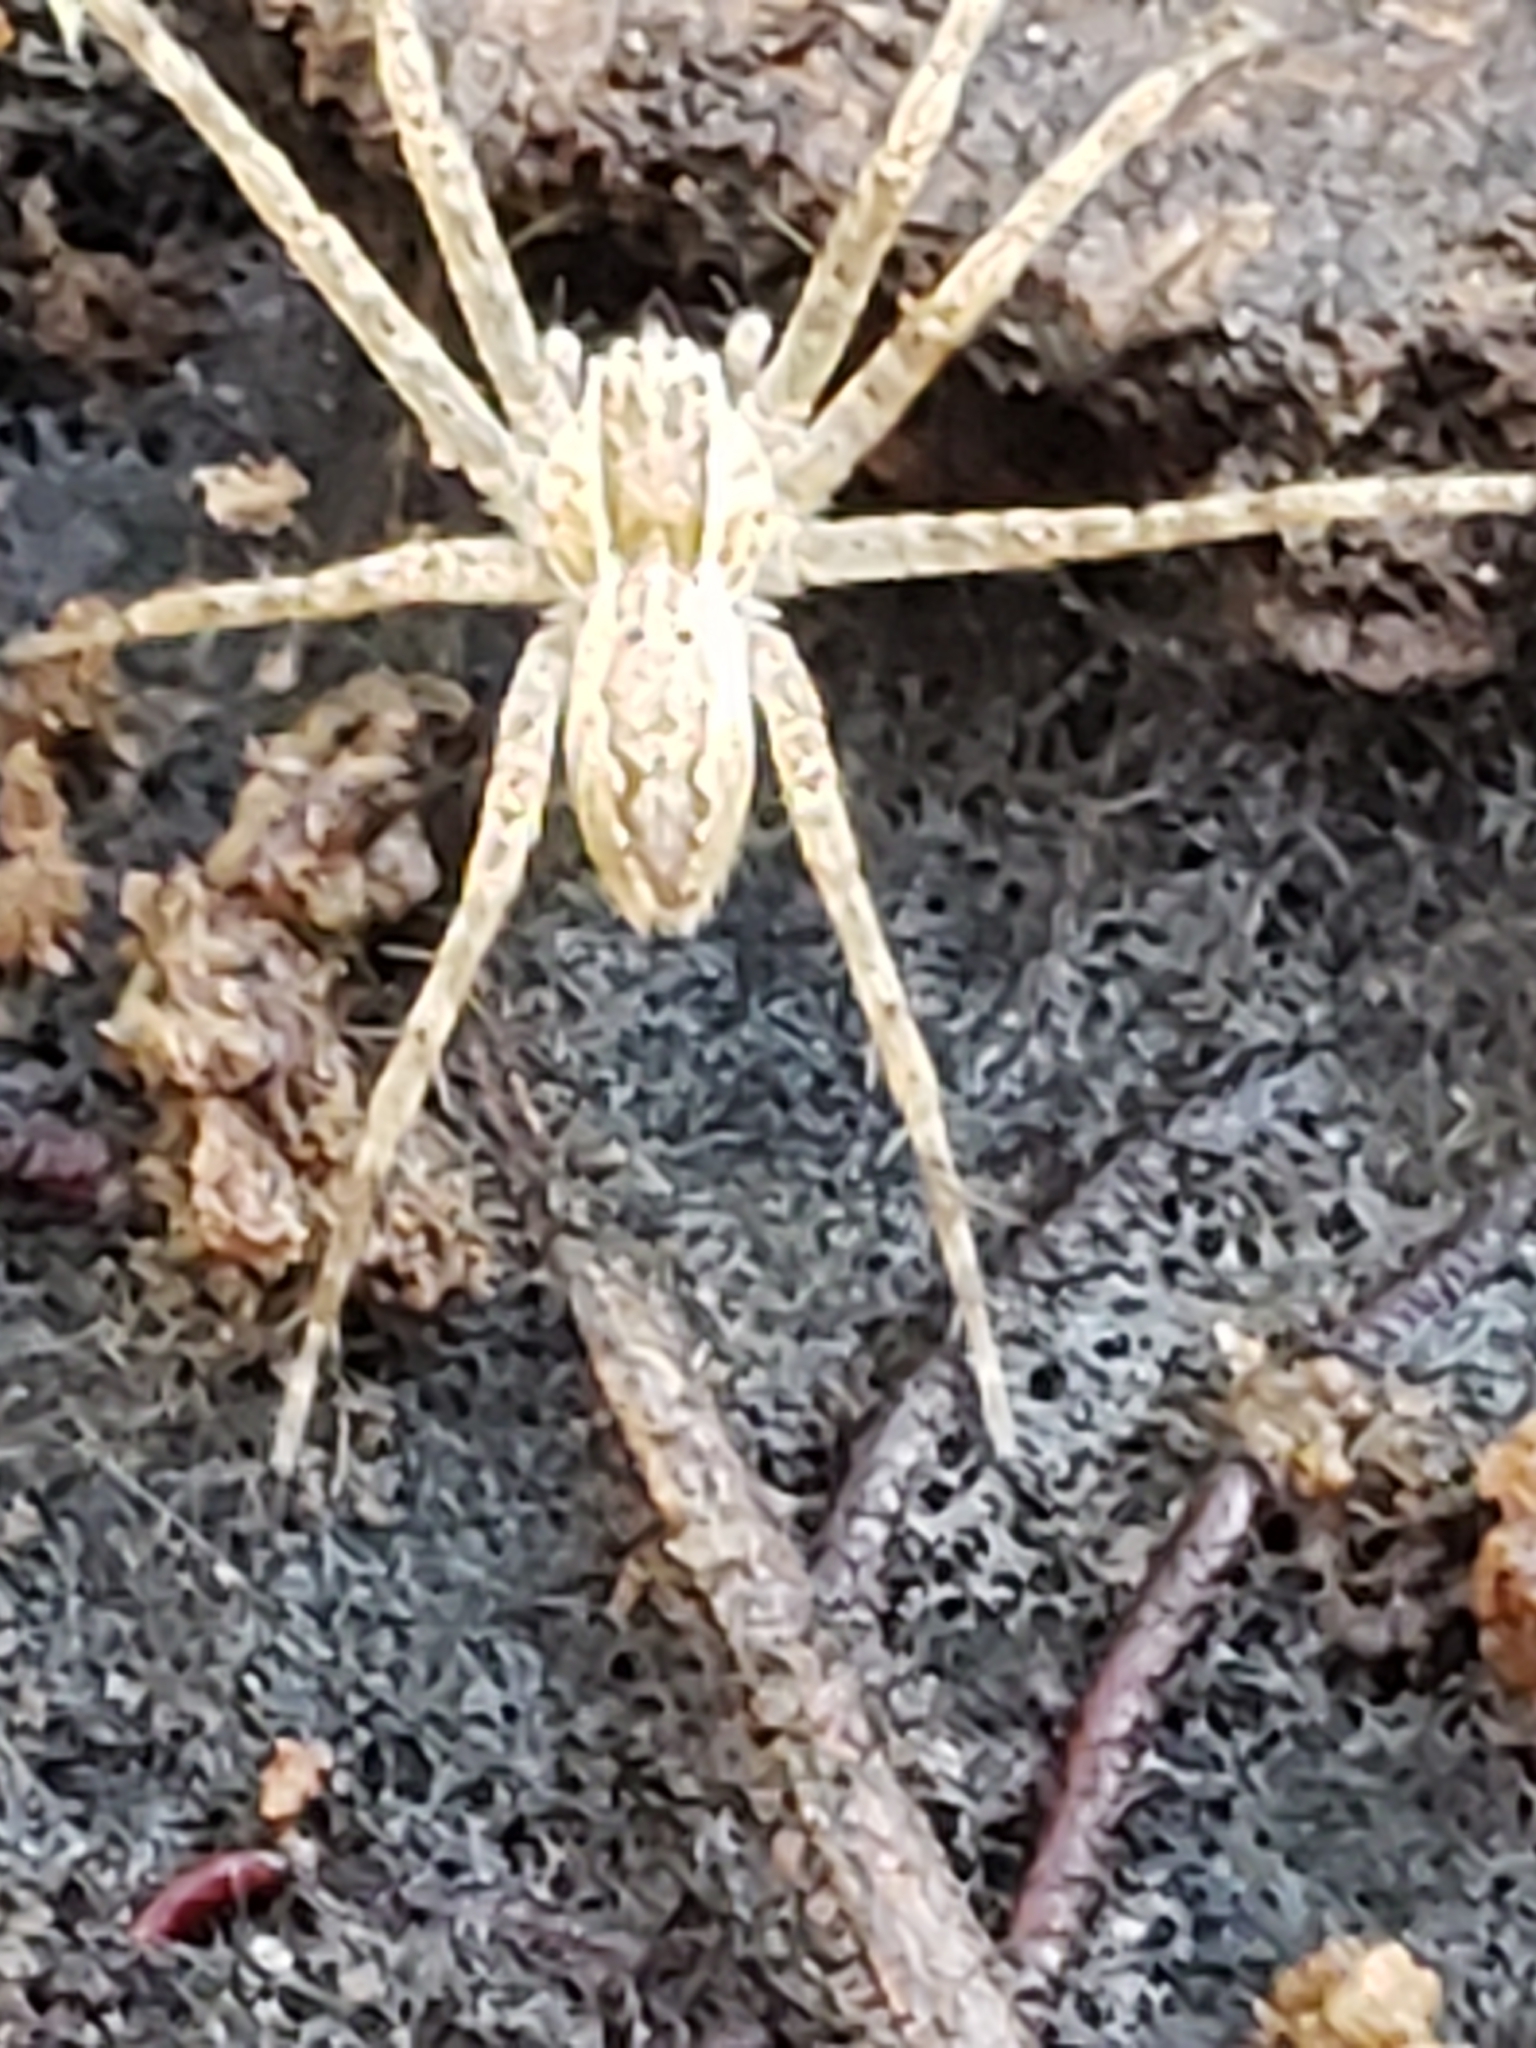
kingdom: Animalia
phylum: Arthropoda
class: Arachnida
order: Araneae
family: Pisauridae
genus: Pisaurina
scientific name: Pisaurina mira
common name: American nursery web spider
